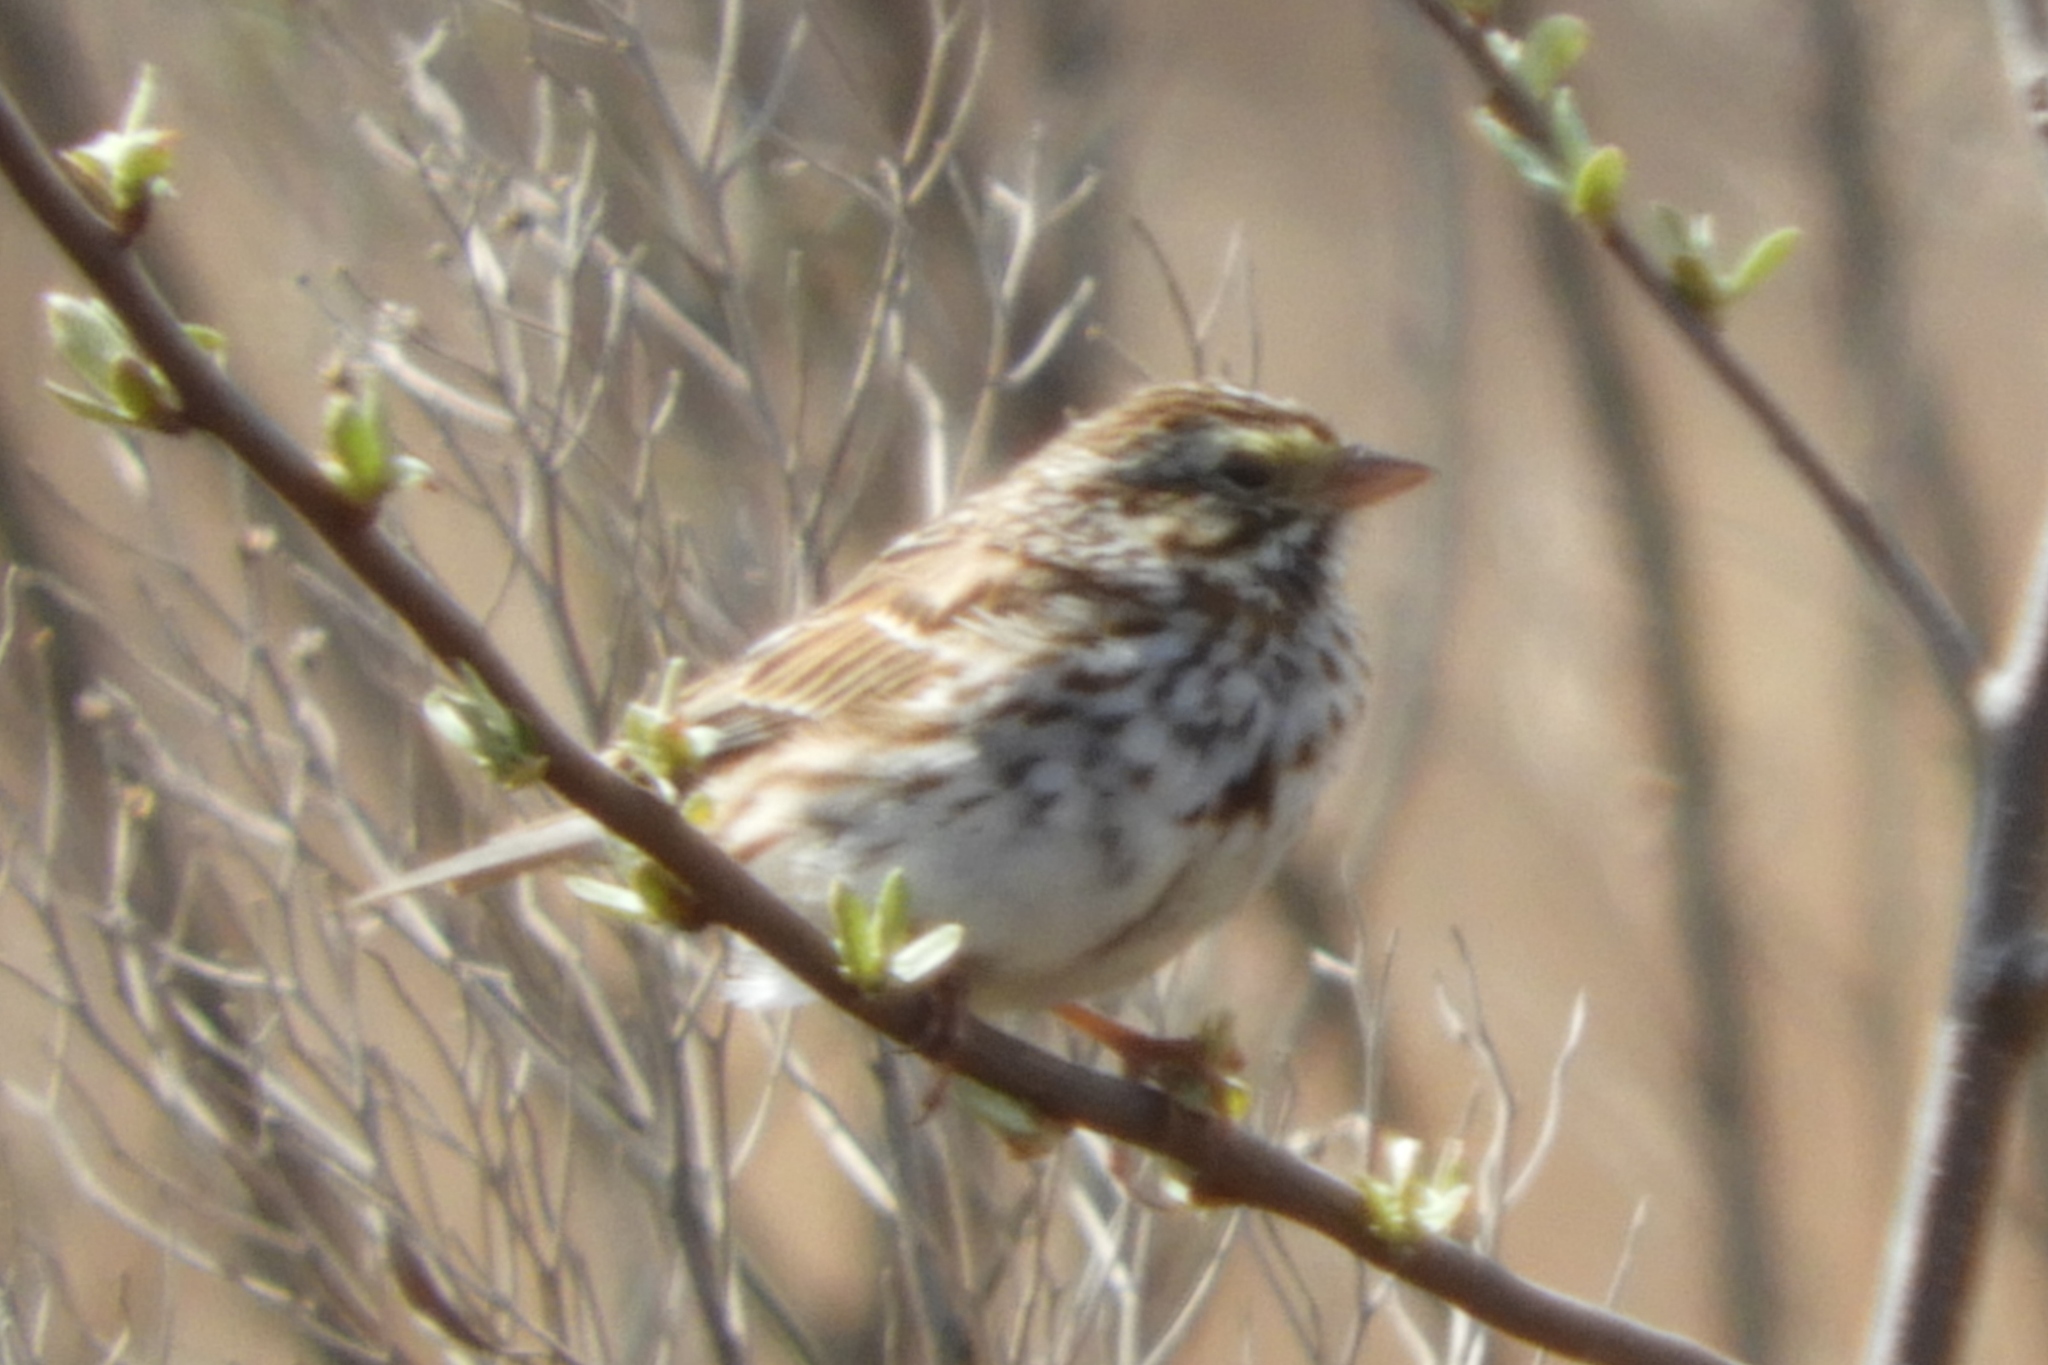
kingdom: Animalia
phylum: Chordata
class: Aves
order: Passeriformes
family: Passerellidae
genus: Passerculus
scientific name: Passerculus sandwichensis
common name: Savannah sparrow
